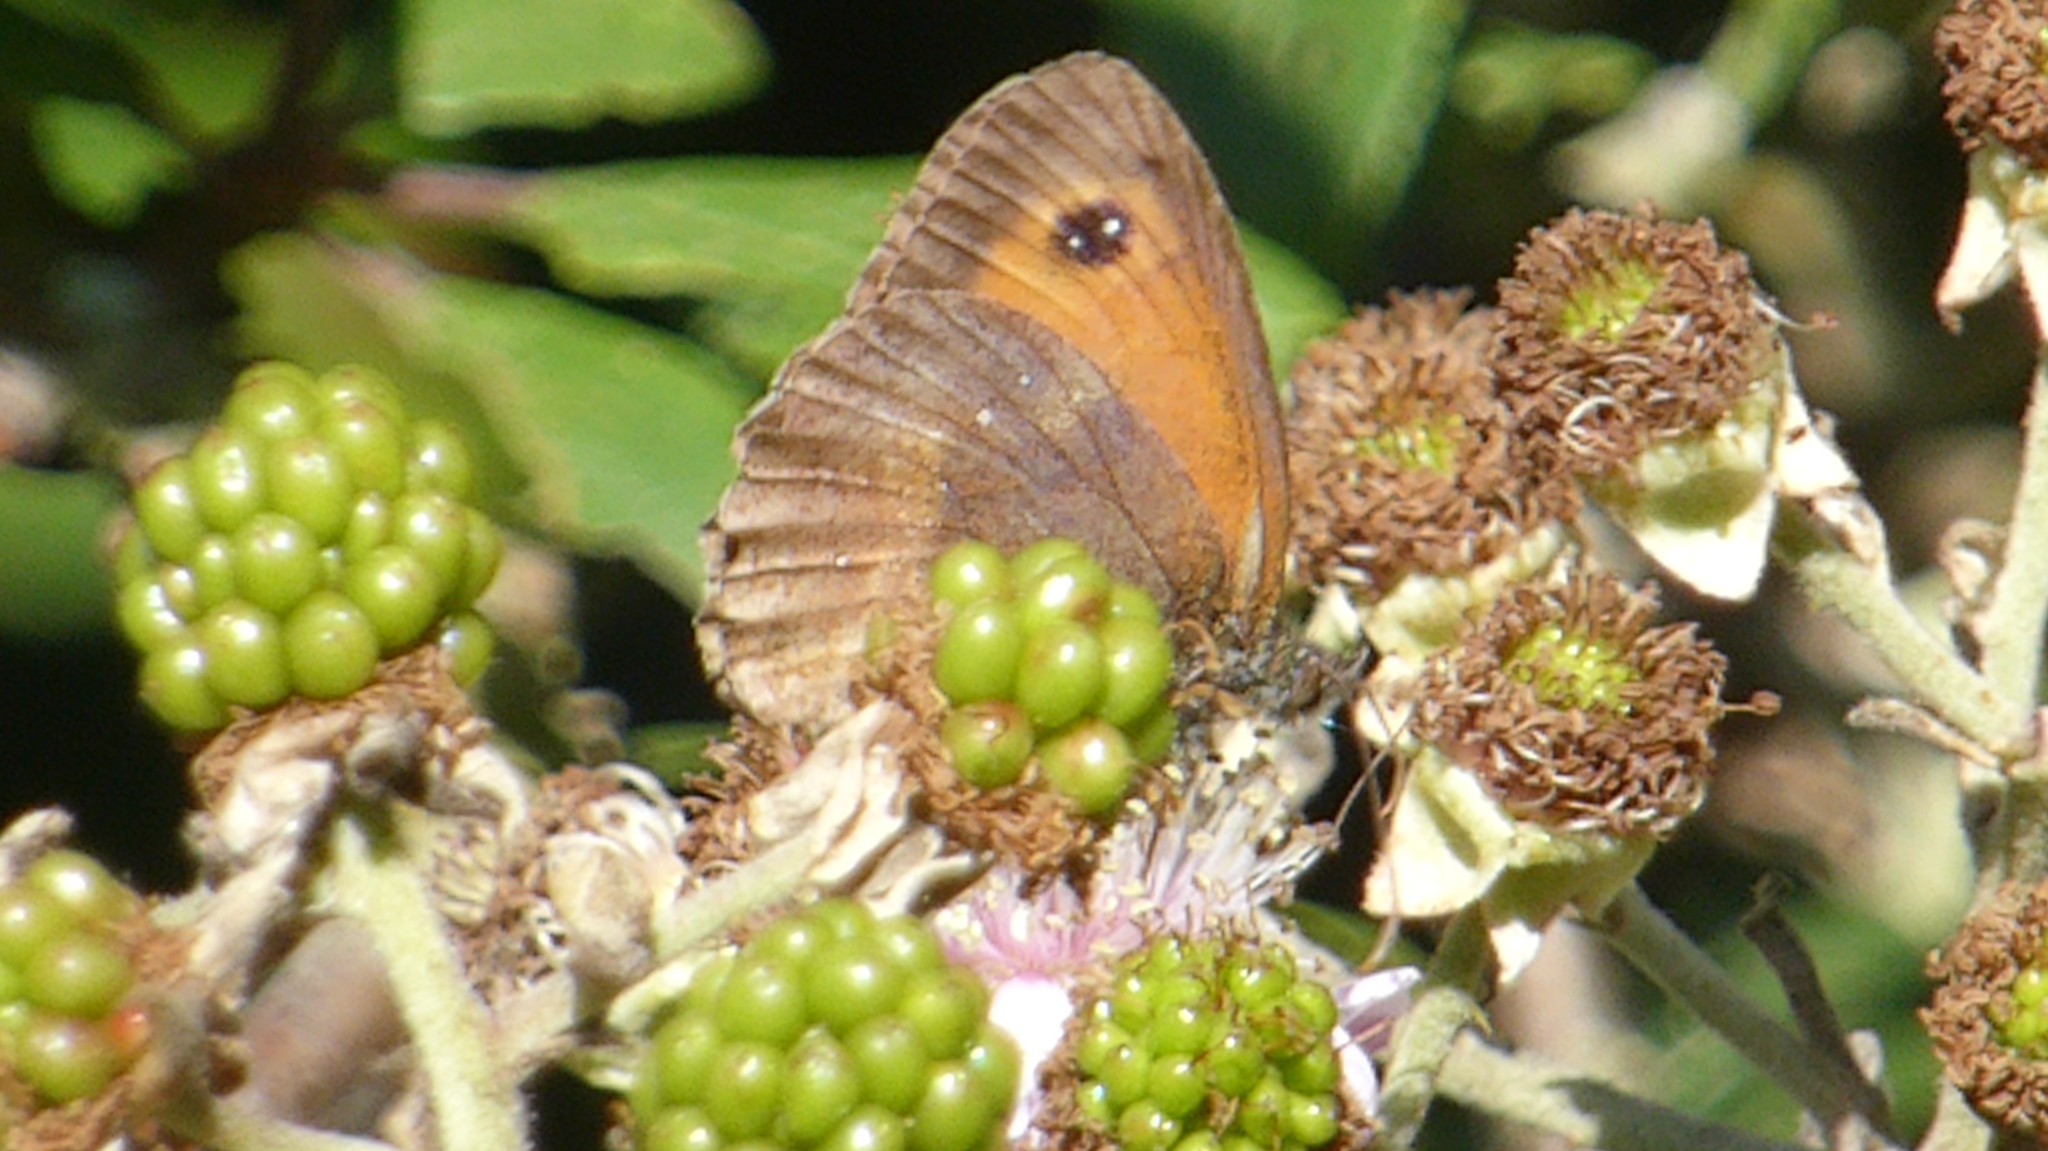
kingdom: Animalia
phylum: Arthropoda
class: Insecta
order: Lepidoptera
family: Nymphalidae
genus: Pyronia
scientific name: Pyronia tithonus
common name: Gatekeeper
